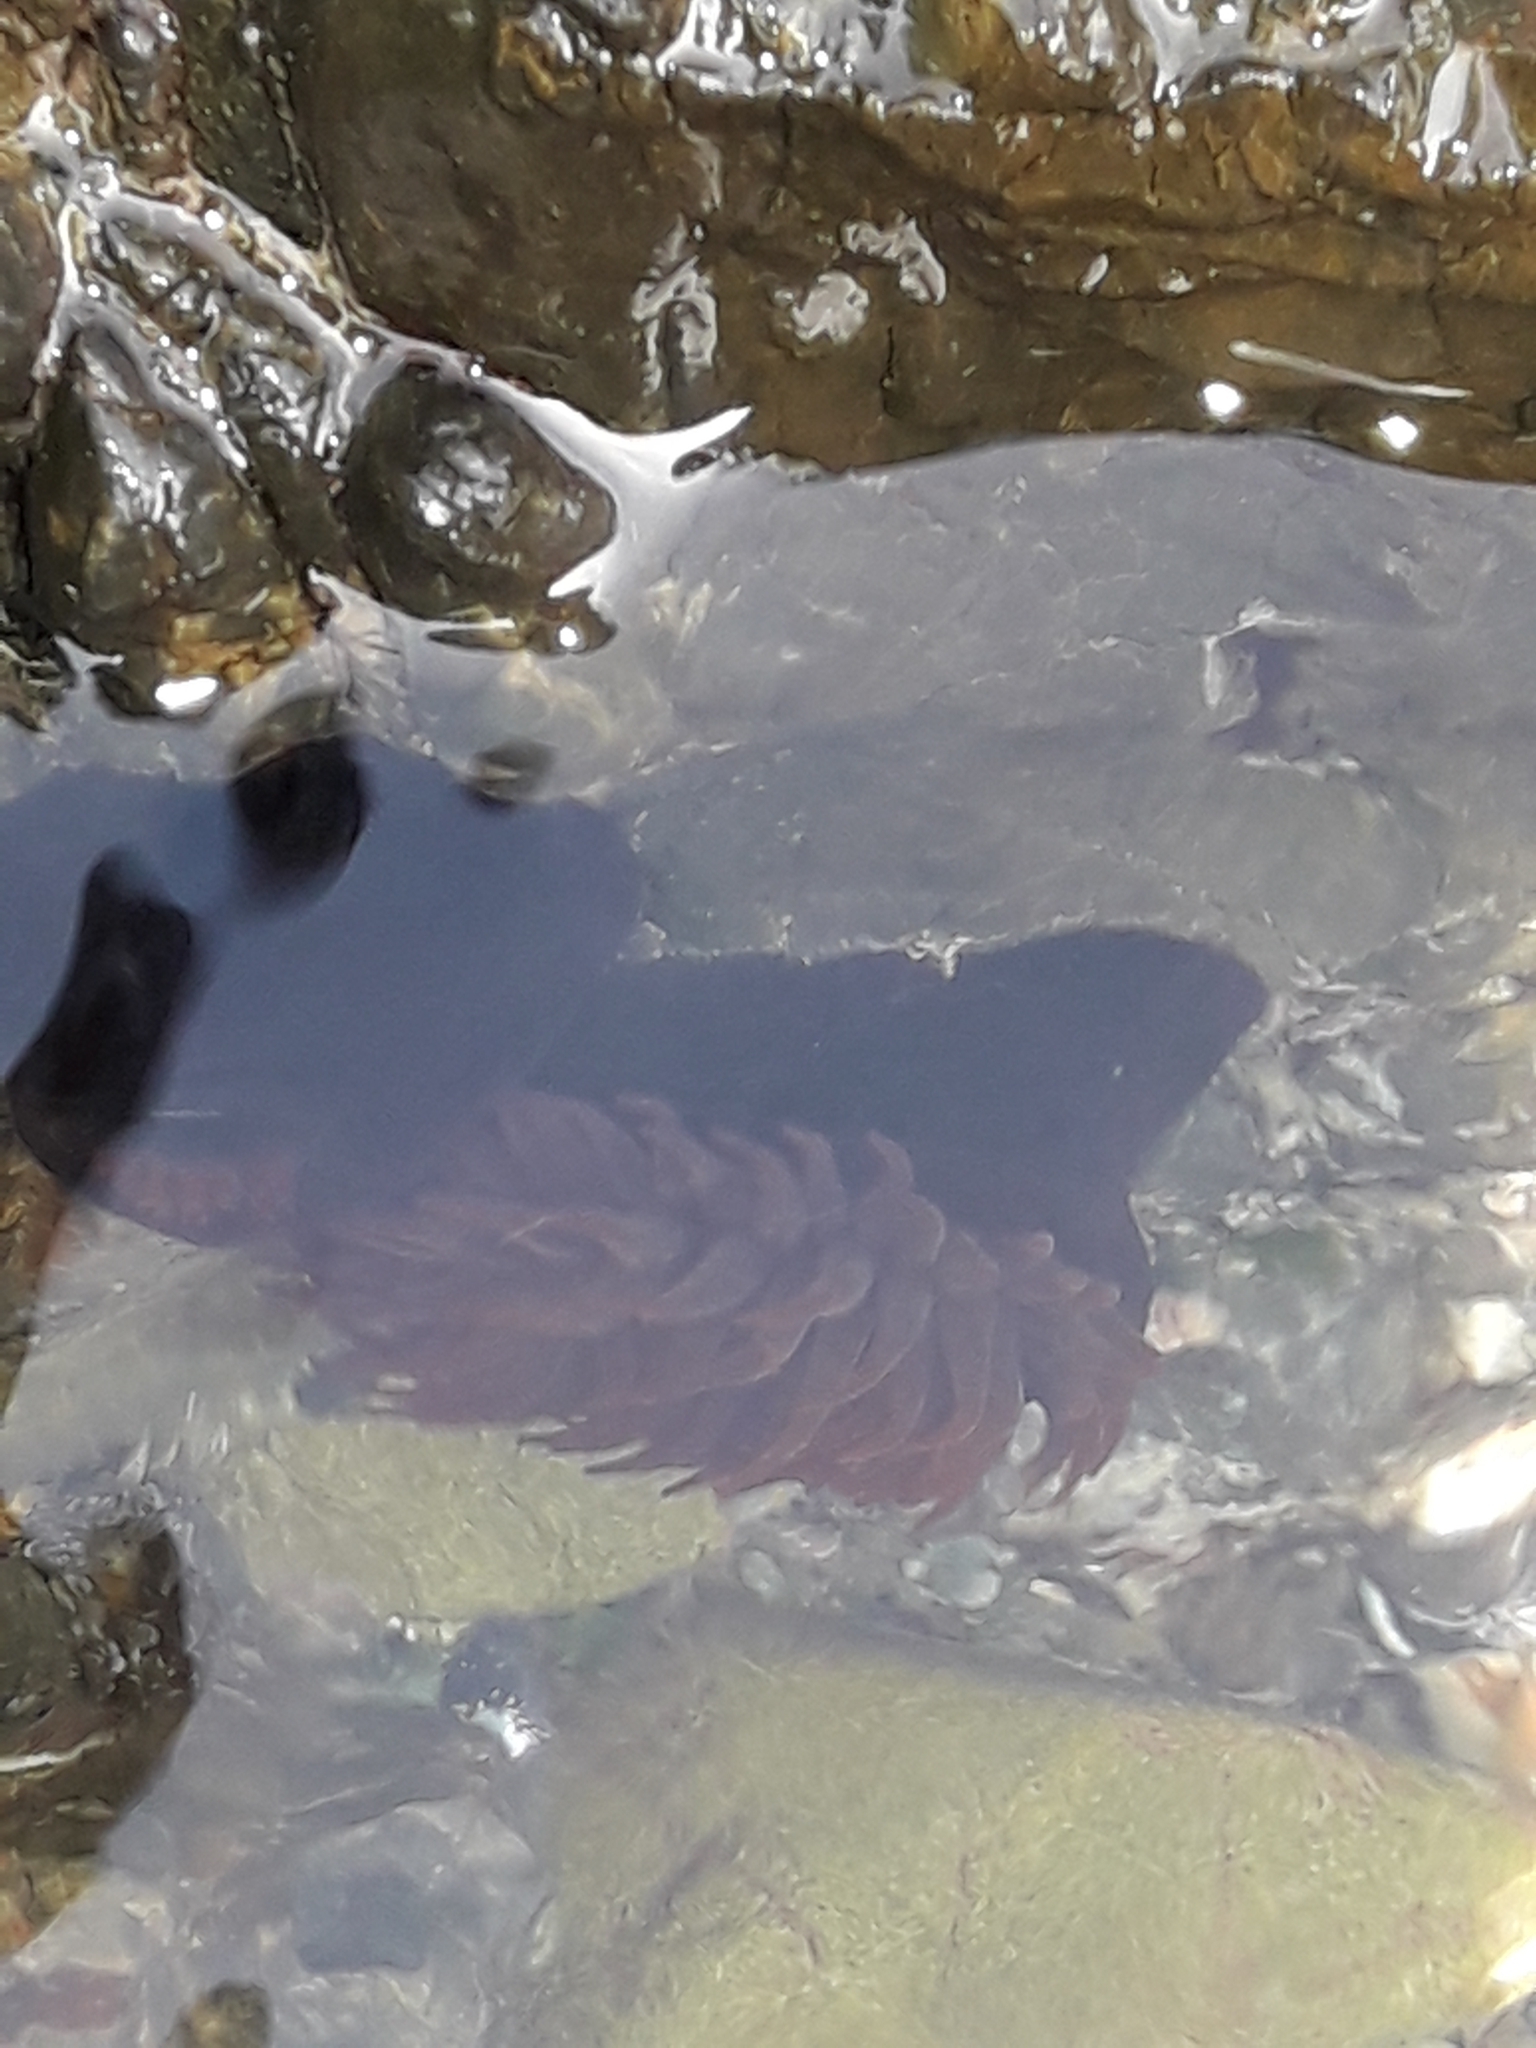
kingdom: Animalia
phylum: Cnidaria
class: Anthozoa
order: Actiniaria
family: Actiniidae
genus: Actinia
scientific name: Actinia tenebrosa
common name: Waratah anemone
